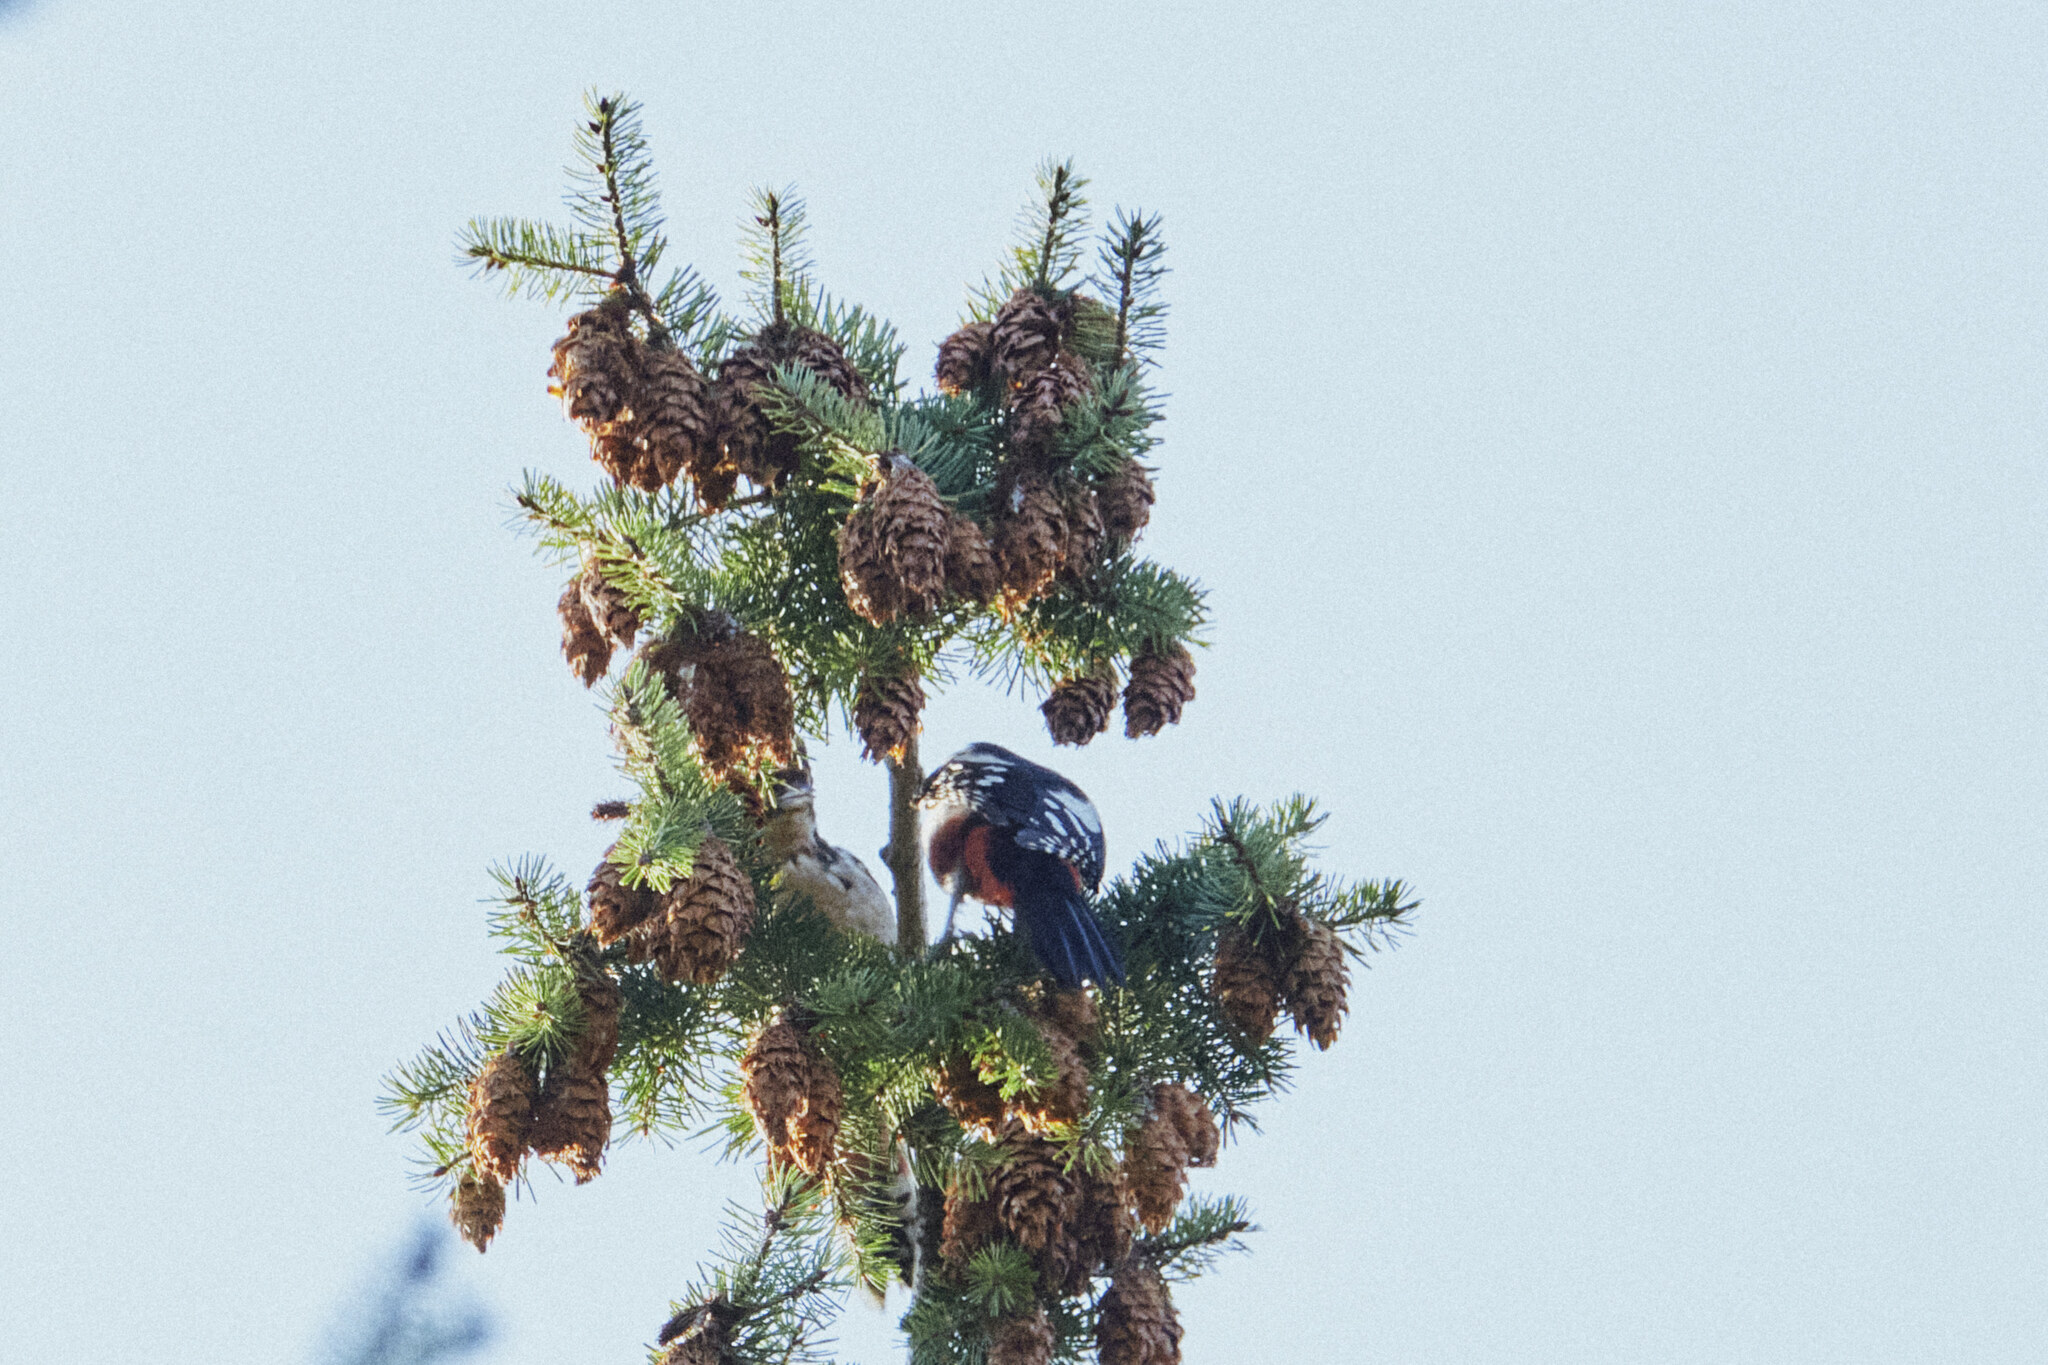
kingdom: Animalia
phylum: Chordata
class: Aves
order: Piciformes
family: Picidae
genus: Dendrocopos
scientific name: Dendrocopos major
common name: Great spotted woodpecker
